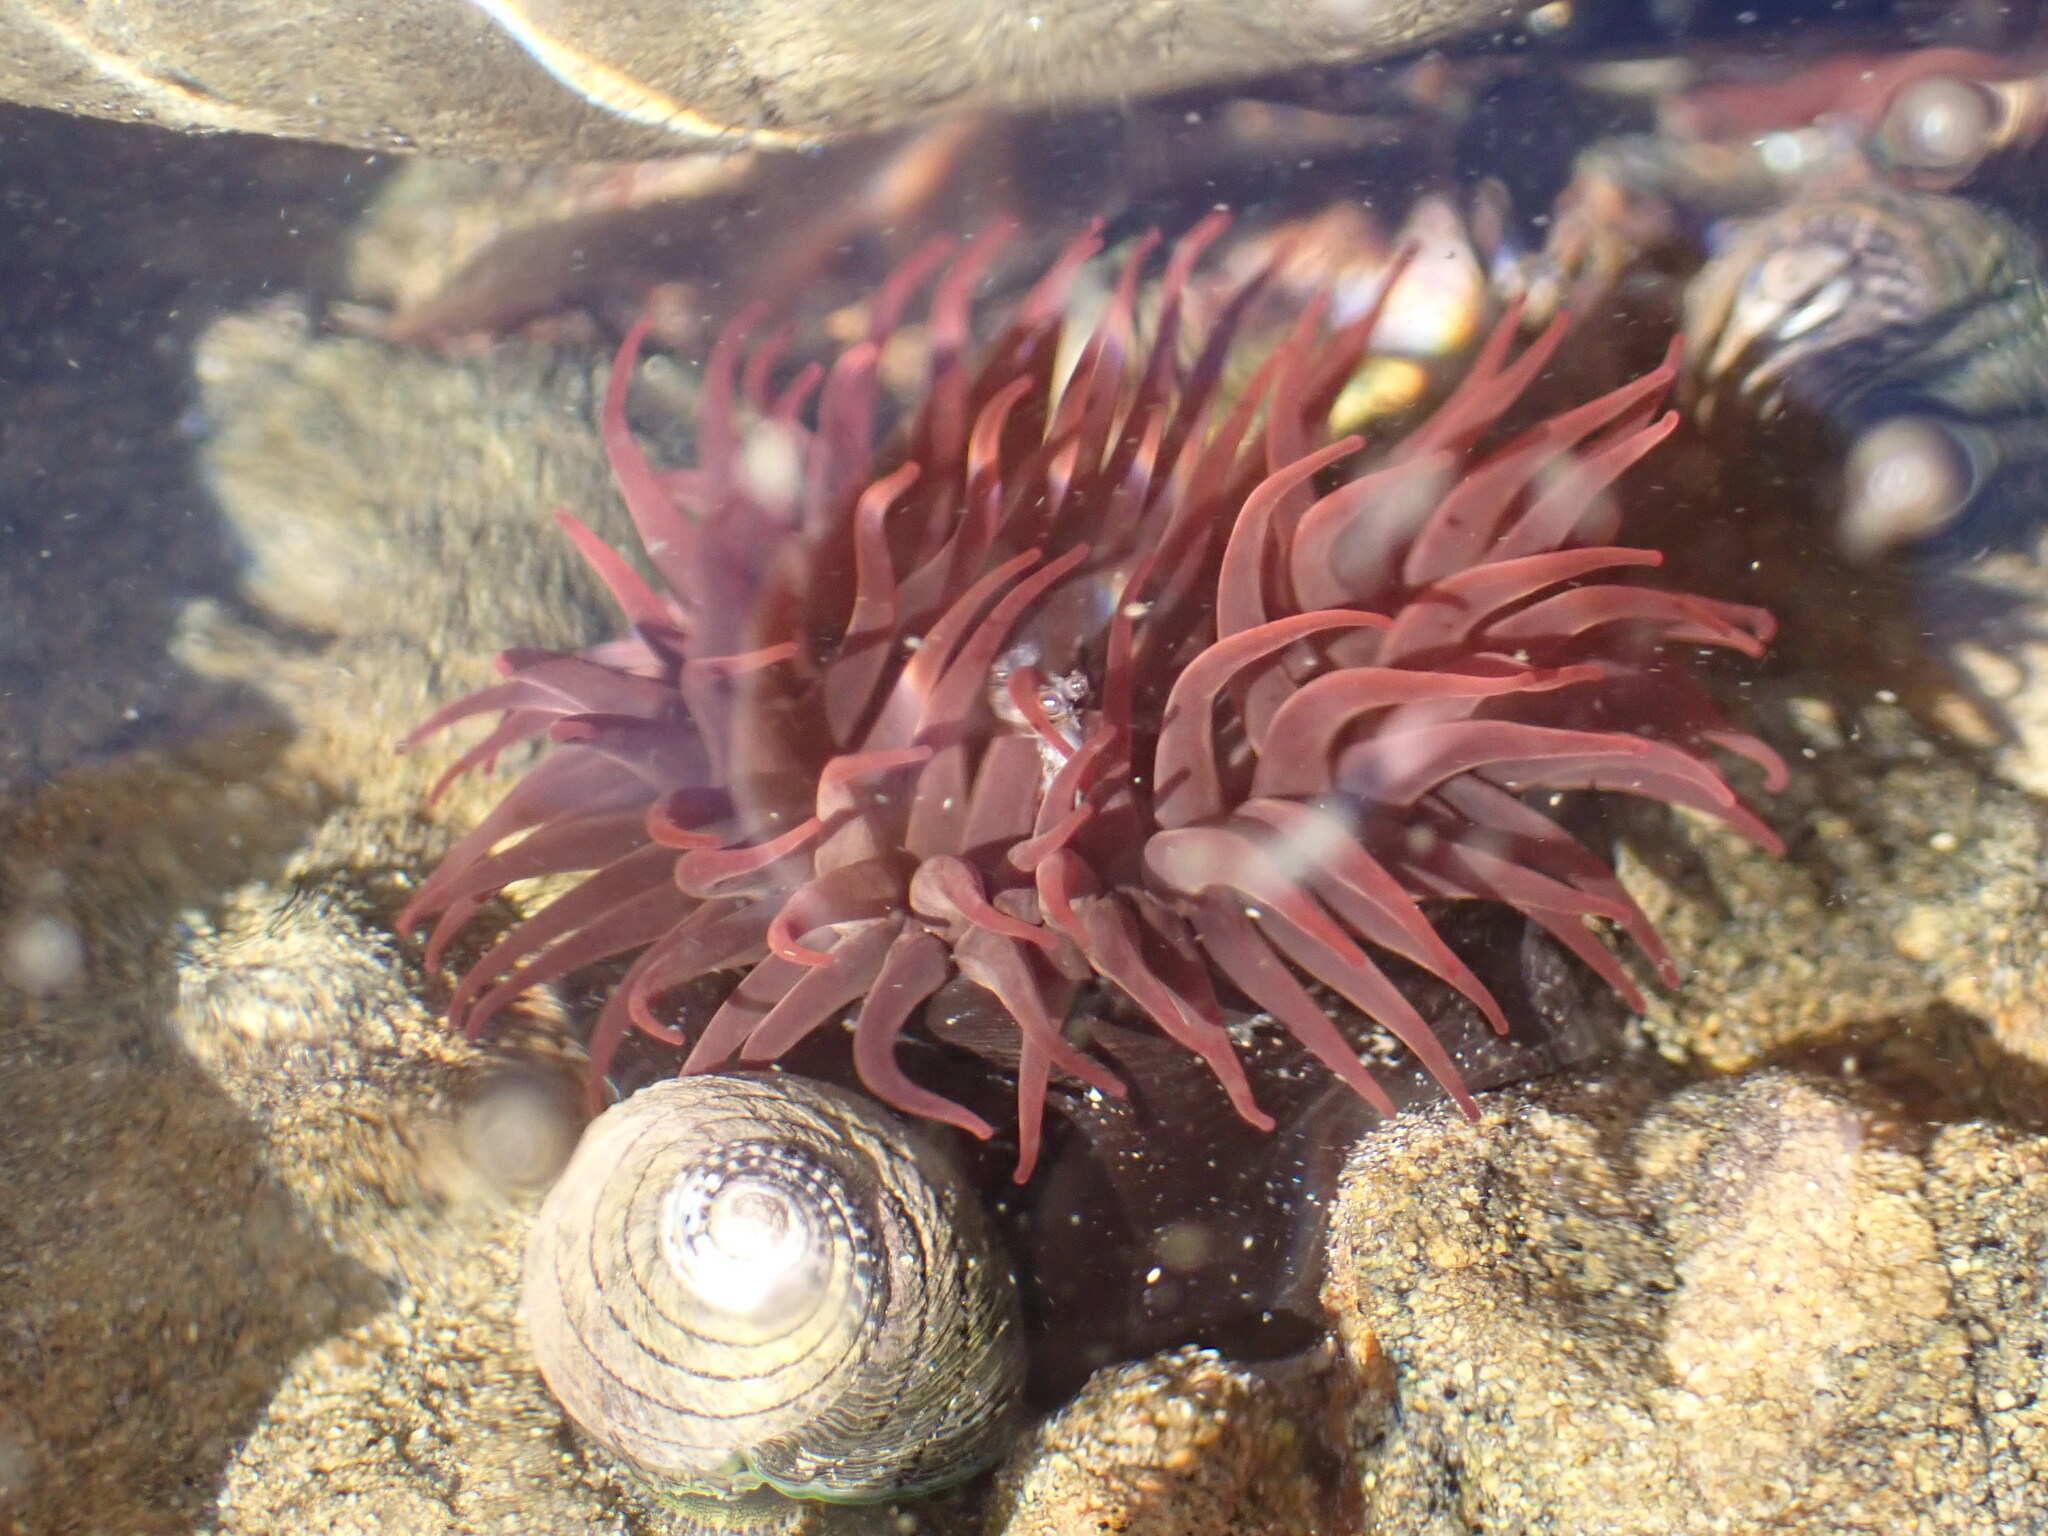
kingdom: Animalia
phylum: Cnidaria
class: Anthozoa
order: Actiniaria
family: Actiniidae
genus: Actinia
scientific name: Actinia tenebrosa
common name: Waratah anemone
